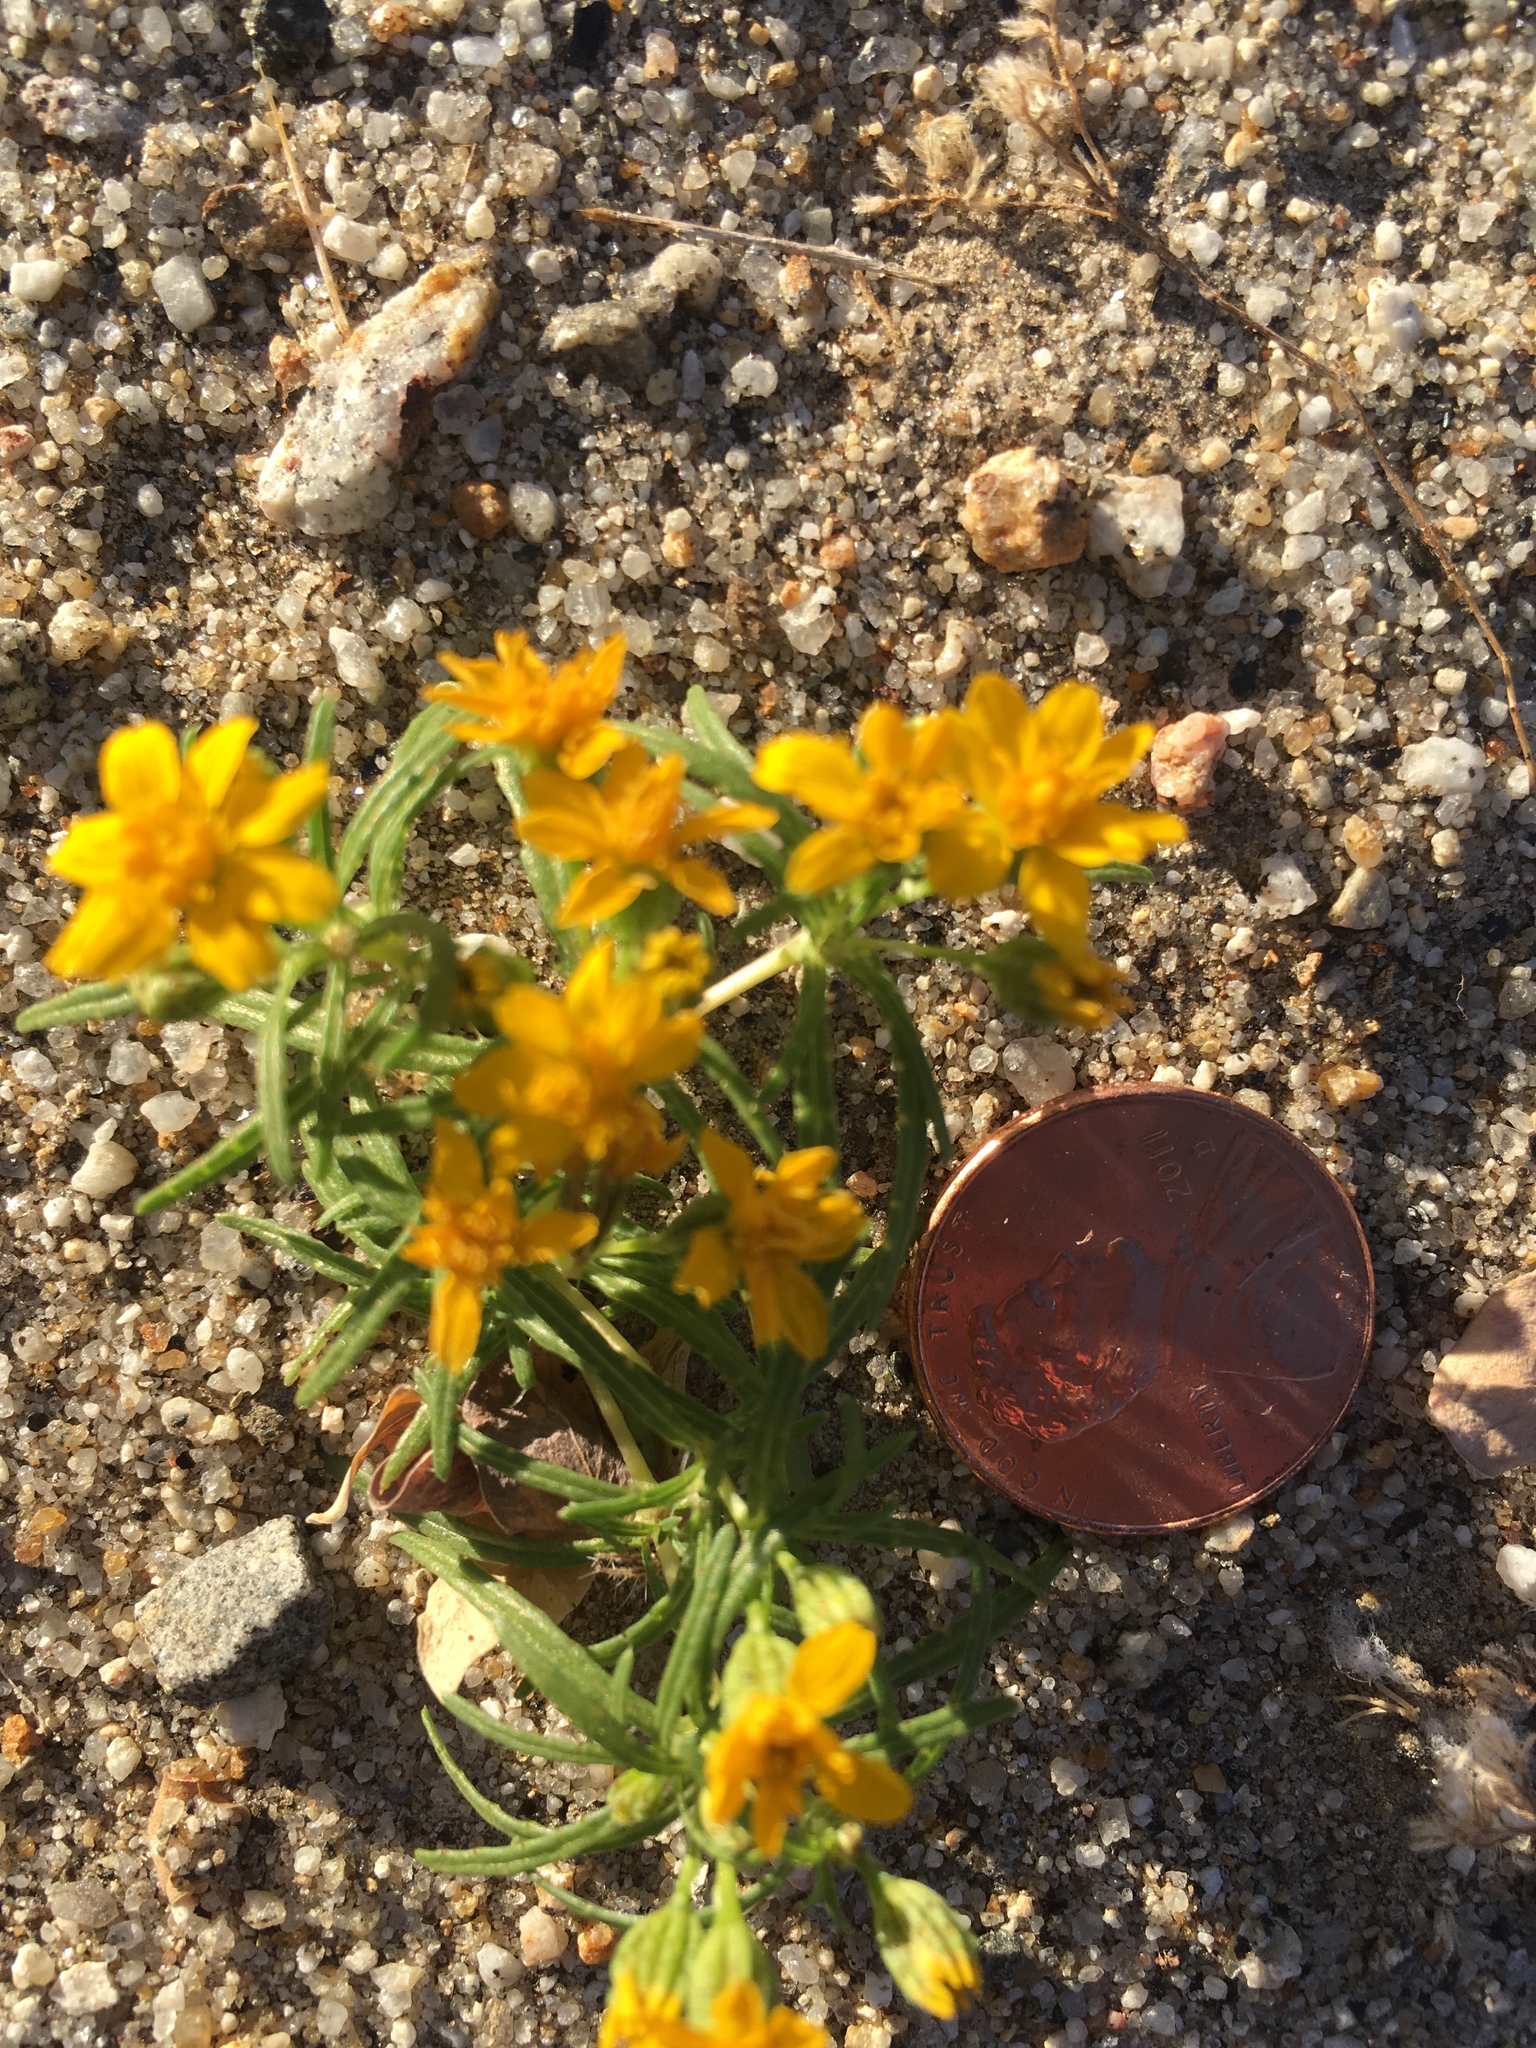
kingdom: Plantae
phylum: Tracheophyta
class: Magnoliopsida
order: Asterales
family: Asteraceae
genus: Pectis
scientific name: Pectis papposa
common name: Many-bristle chinchweed
